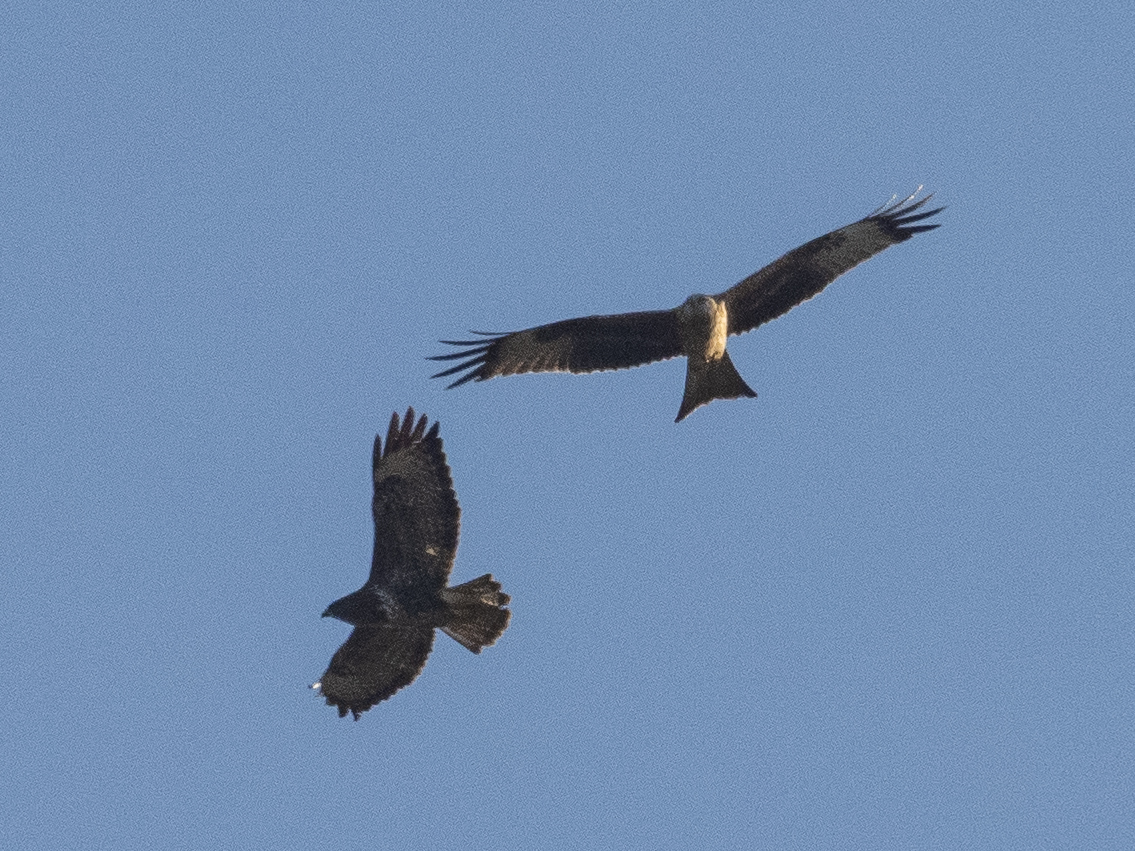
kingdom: Animalia
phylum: Chordata
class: Aves
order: Accipitriformes
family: Accipitridae
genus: Buteo
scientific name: Buteo buteo
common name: Common buzzard
